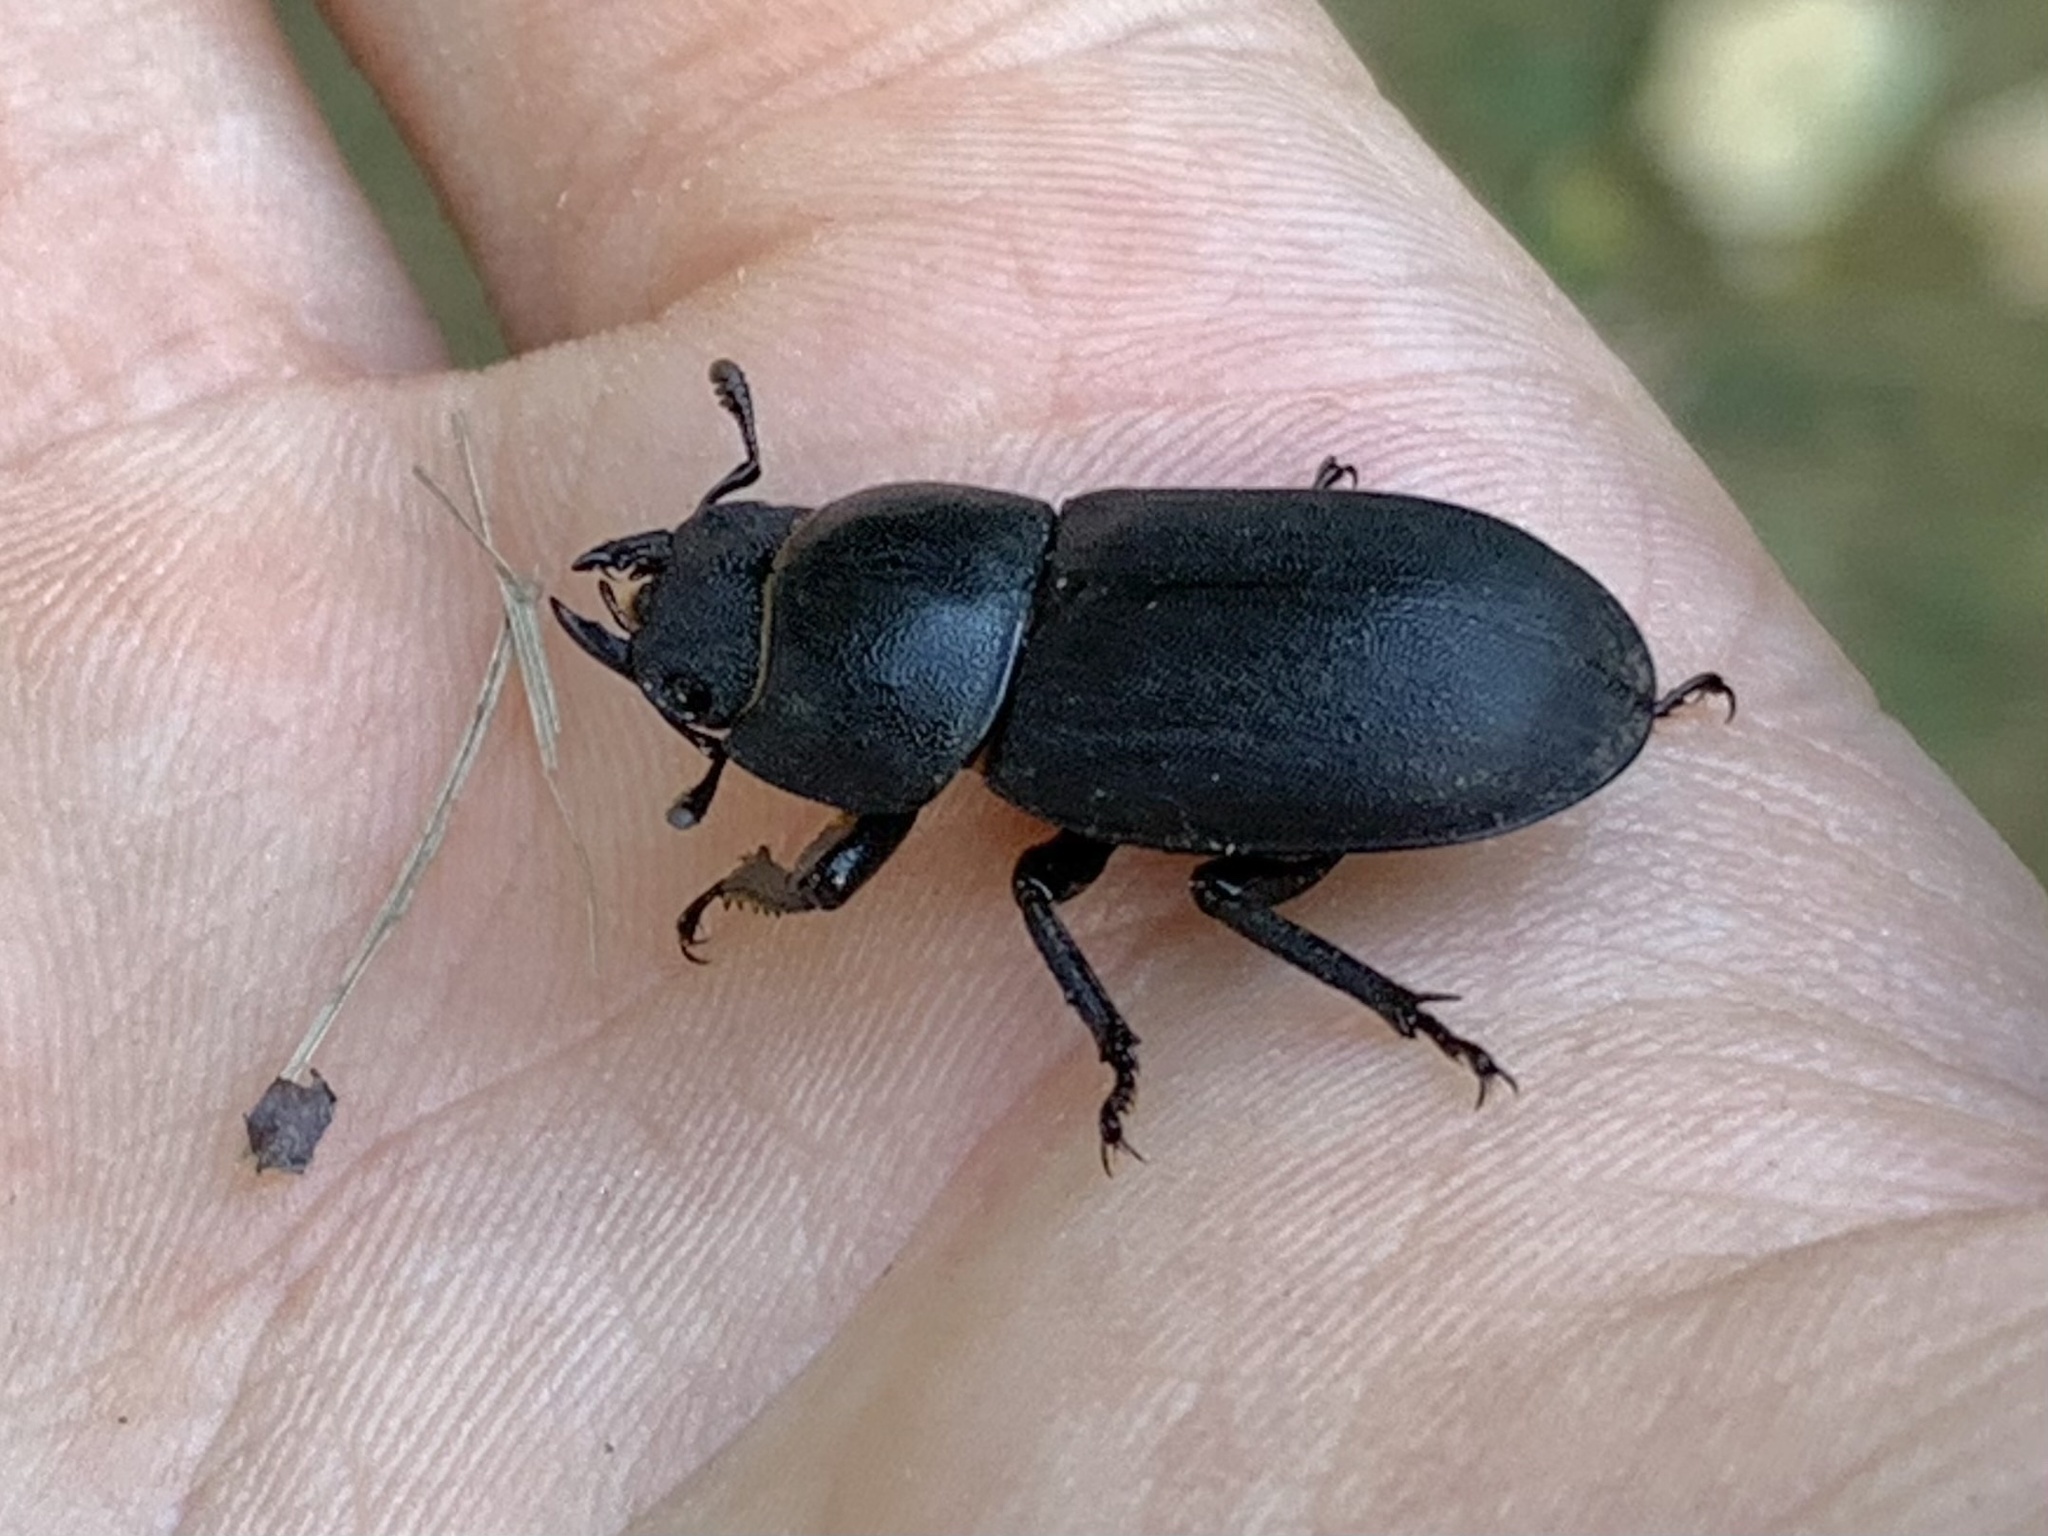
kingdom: Animalia
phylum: Arthropoda
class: Insecta
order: Coleoptera
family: Lucanidae
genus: Dorcus
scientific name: Dorcus parallelipipedus
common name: Lesser stag beetle
